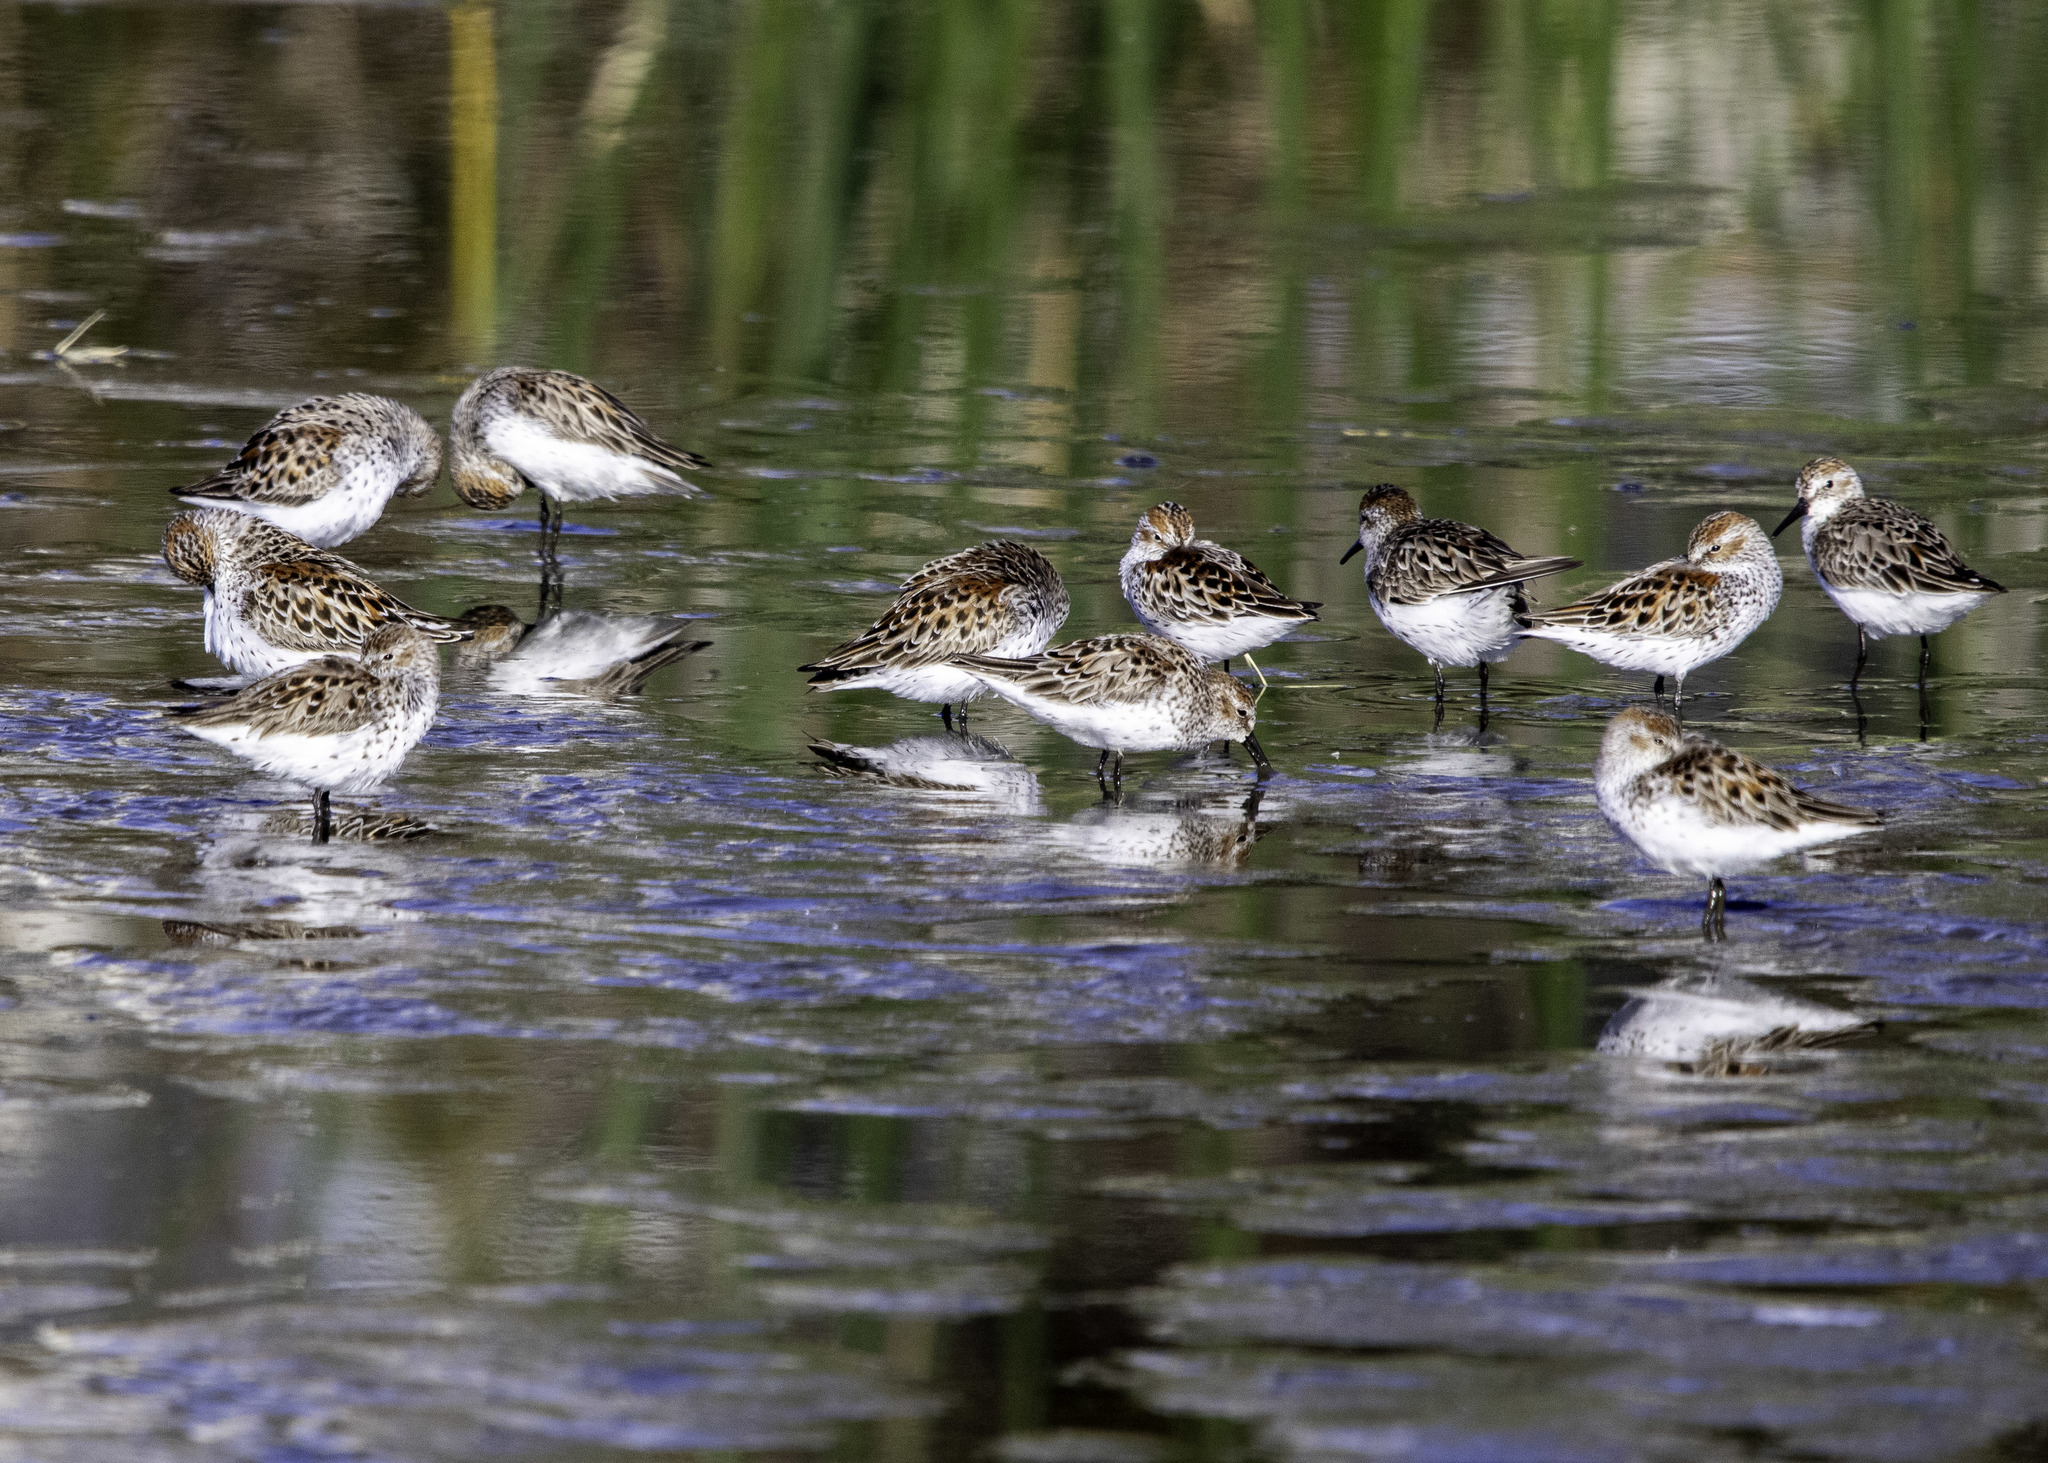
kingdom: Animalia
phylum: Chordata
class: Aves
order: Charadriiformes
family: Scolopacidae
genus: Calidris
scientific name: Calidris mauri
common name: Western sandpiper
